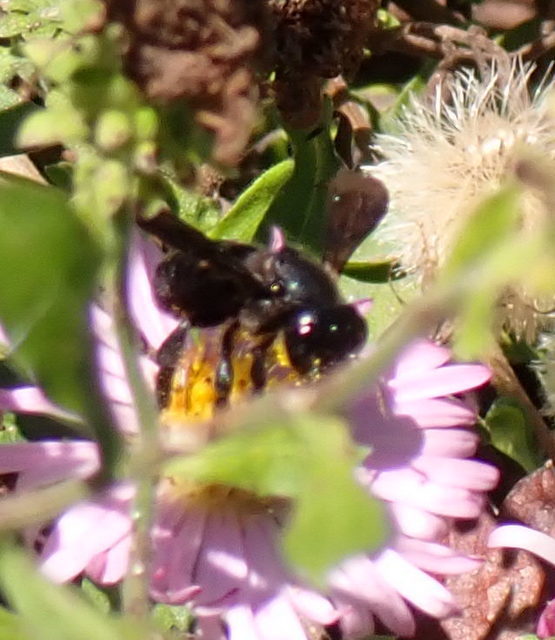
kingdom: Animalia
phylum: Arthropoda
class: Insecta
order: Hymenoptera
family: Megachilidae
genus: Megachile
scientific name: Megachile xylocopoides
